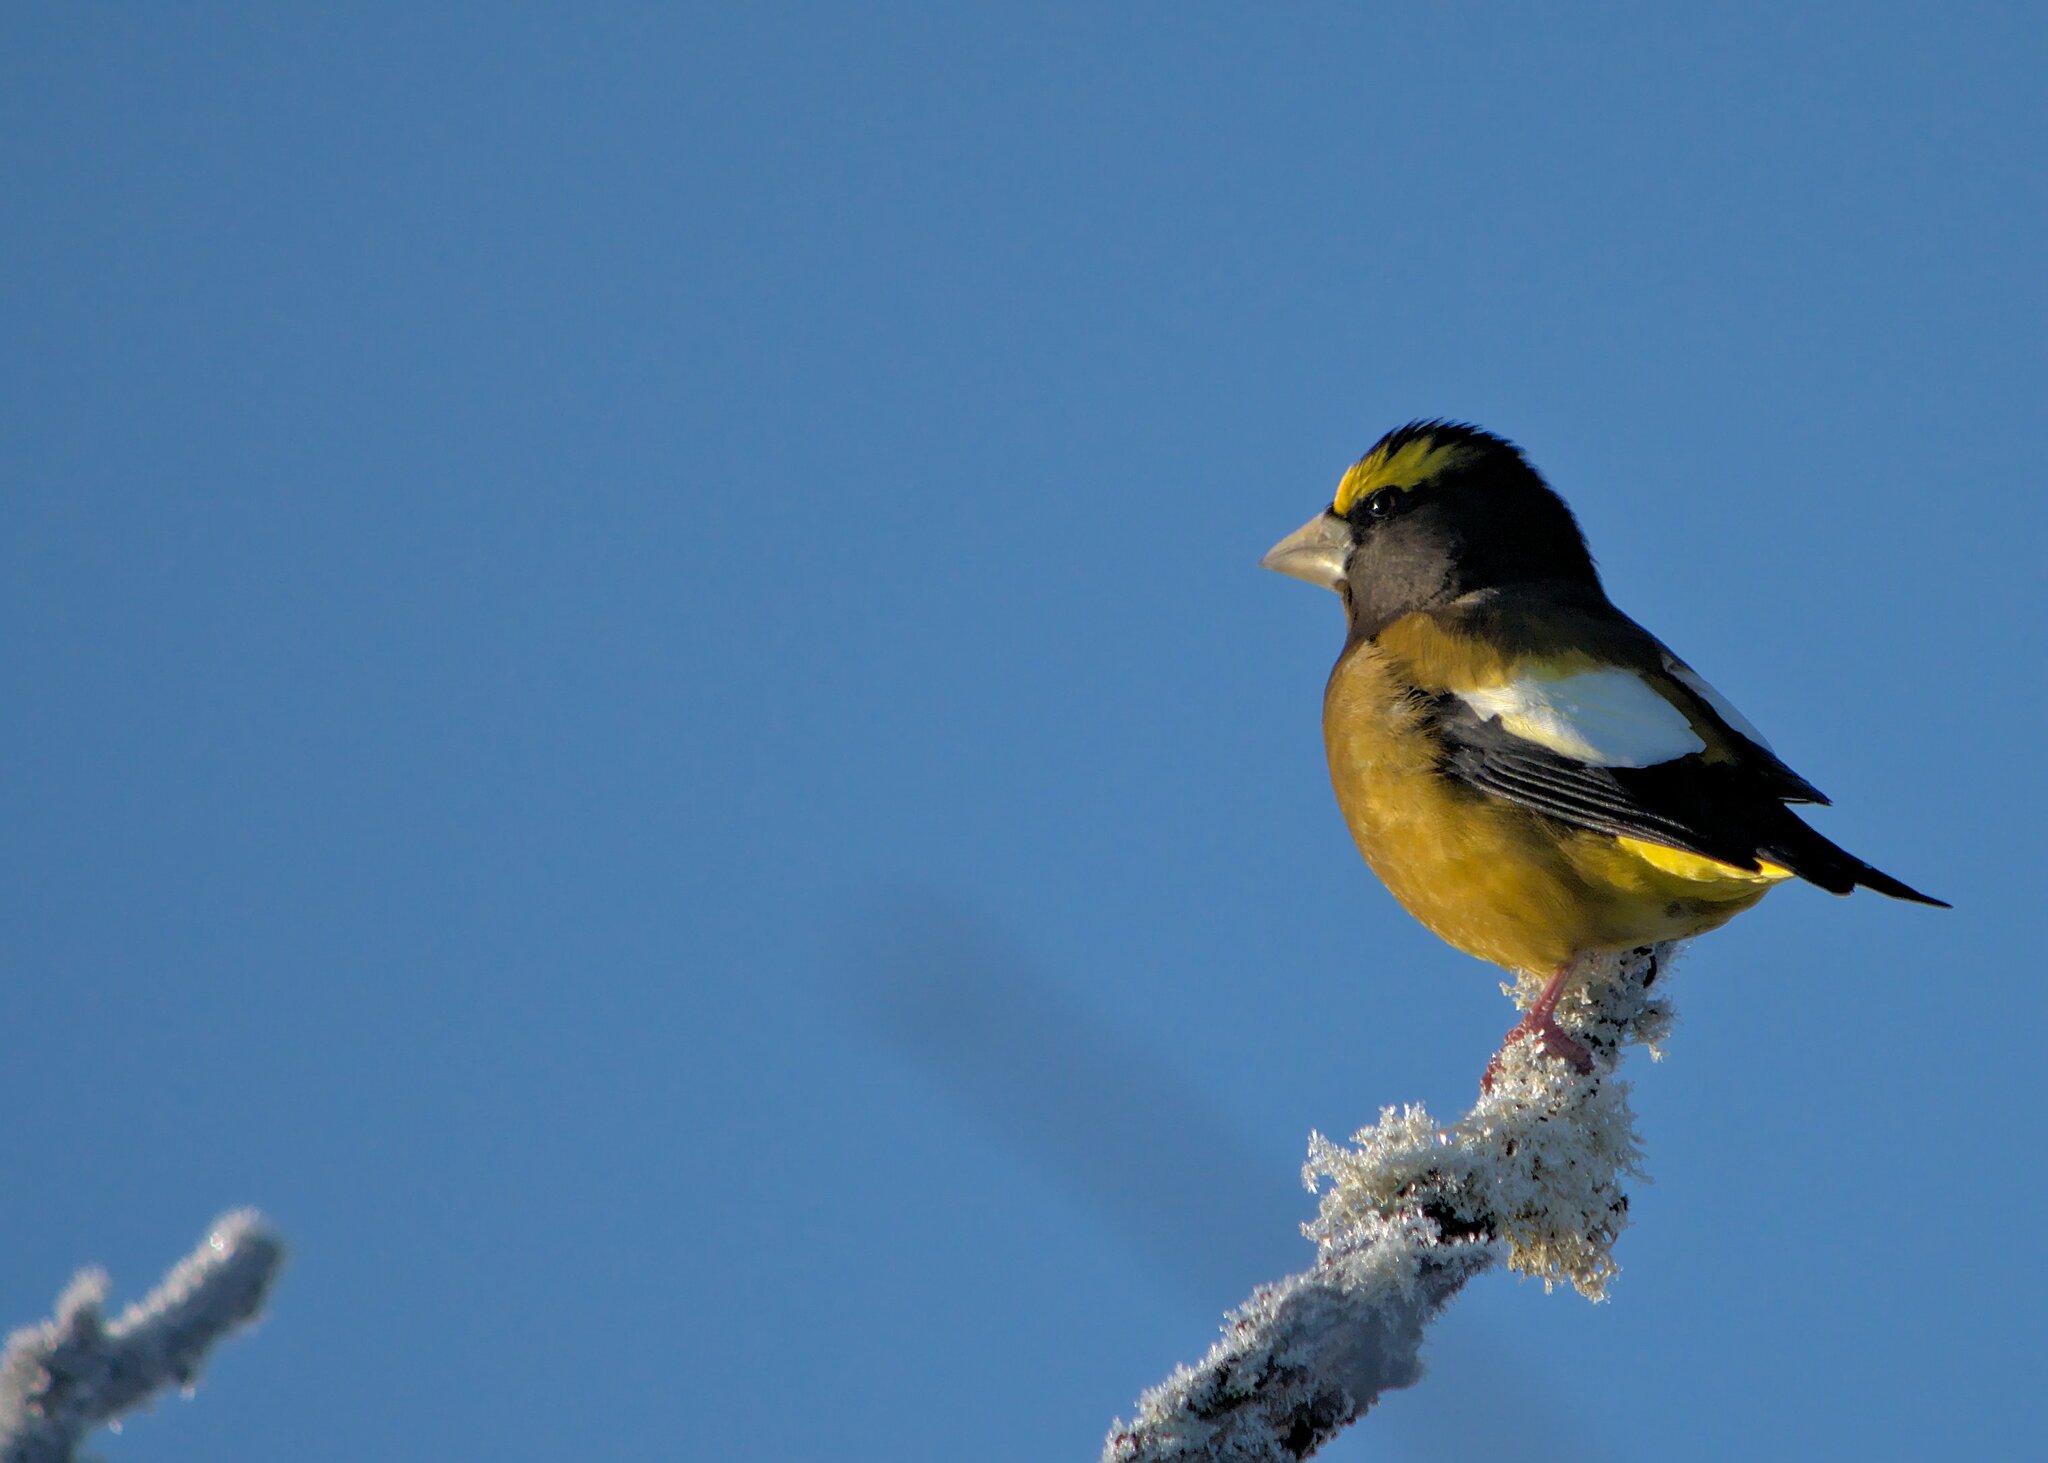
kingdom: Animalia
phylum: Chordata
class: Aves
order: Passeriformes
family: Fringillidae
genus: Hesperiphona
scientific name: Hesperiphona vespertina
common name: Evening grosbeak
